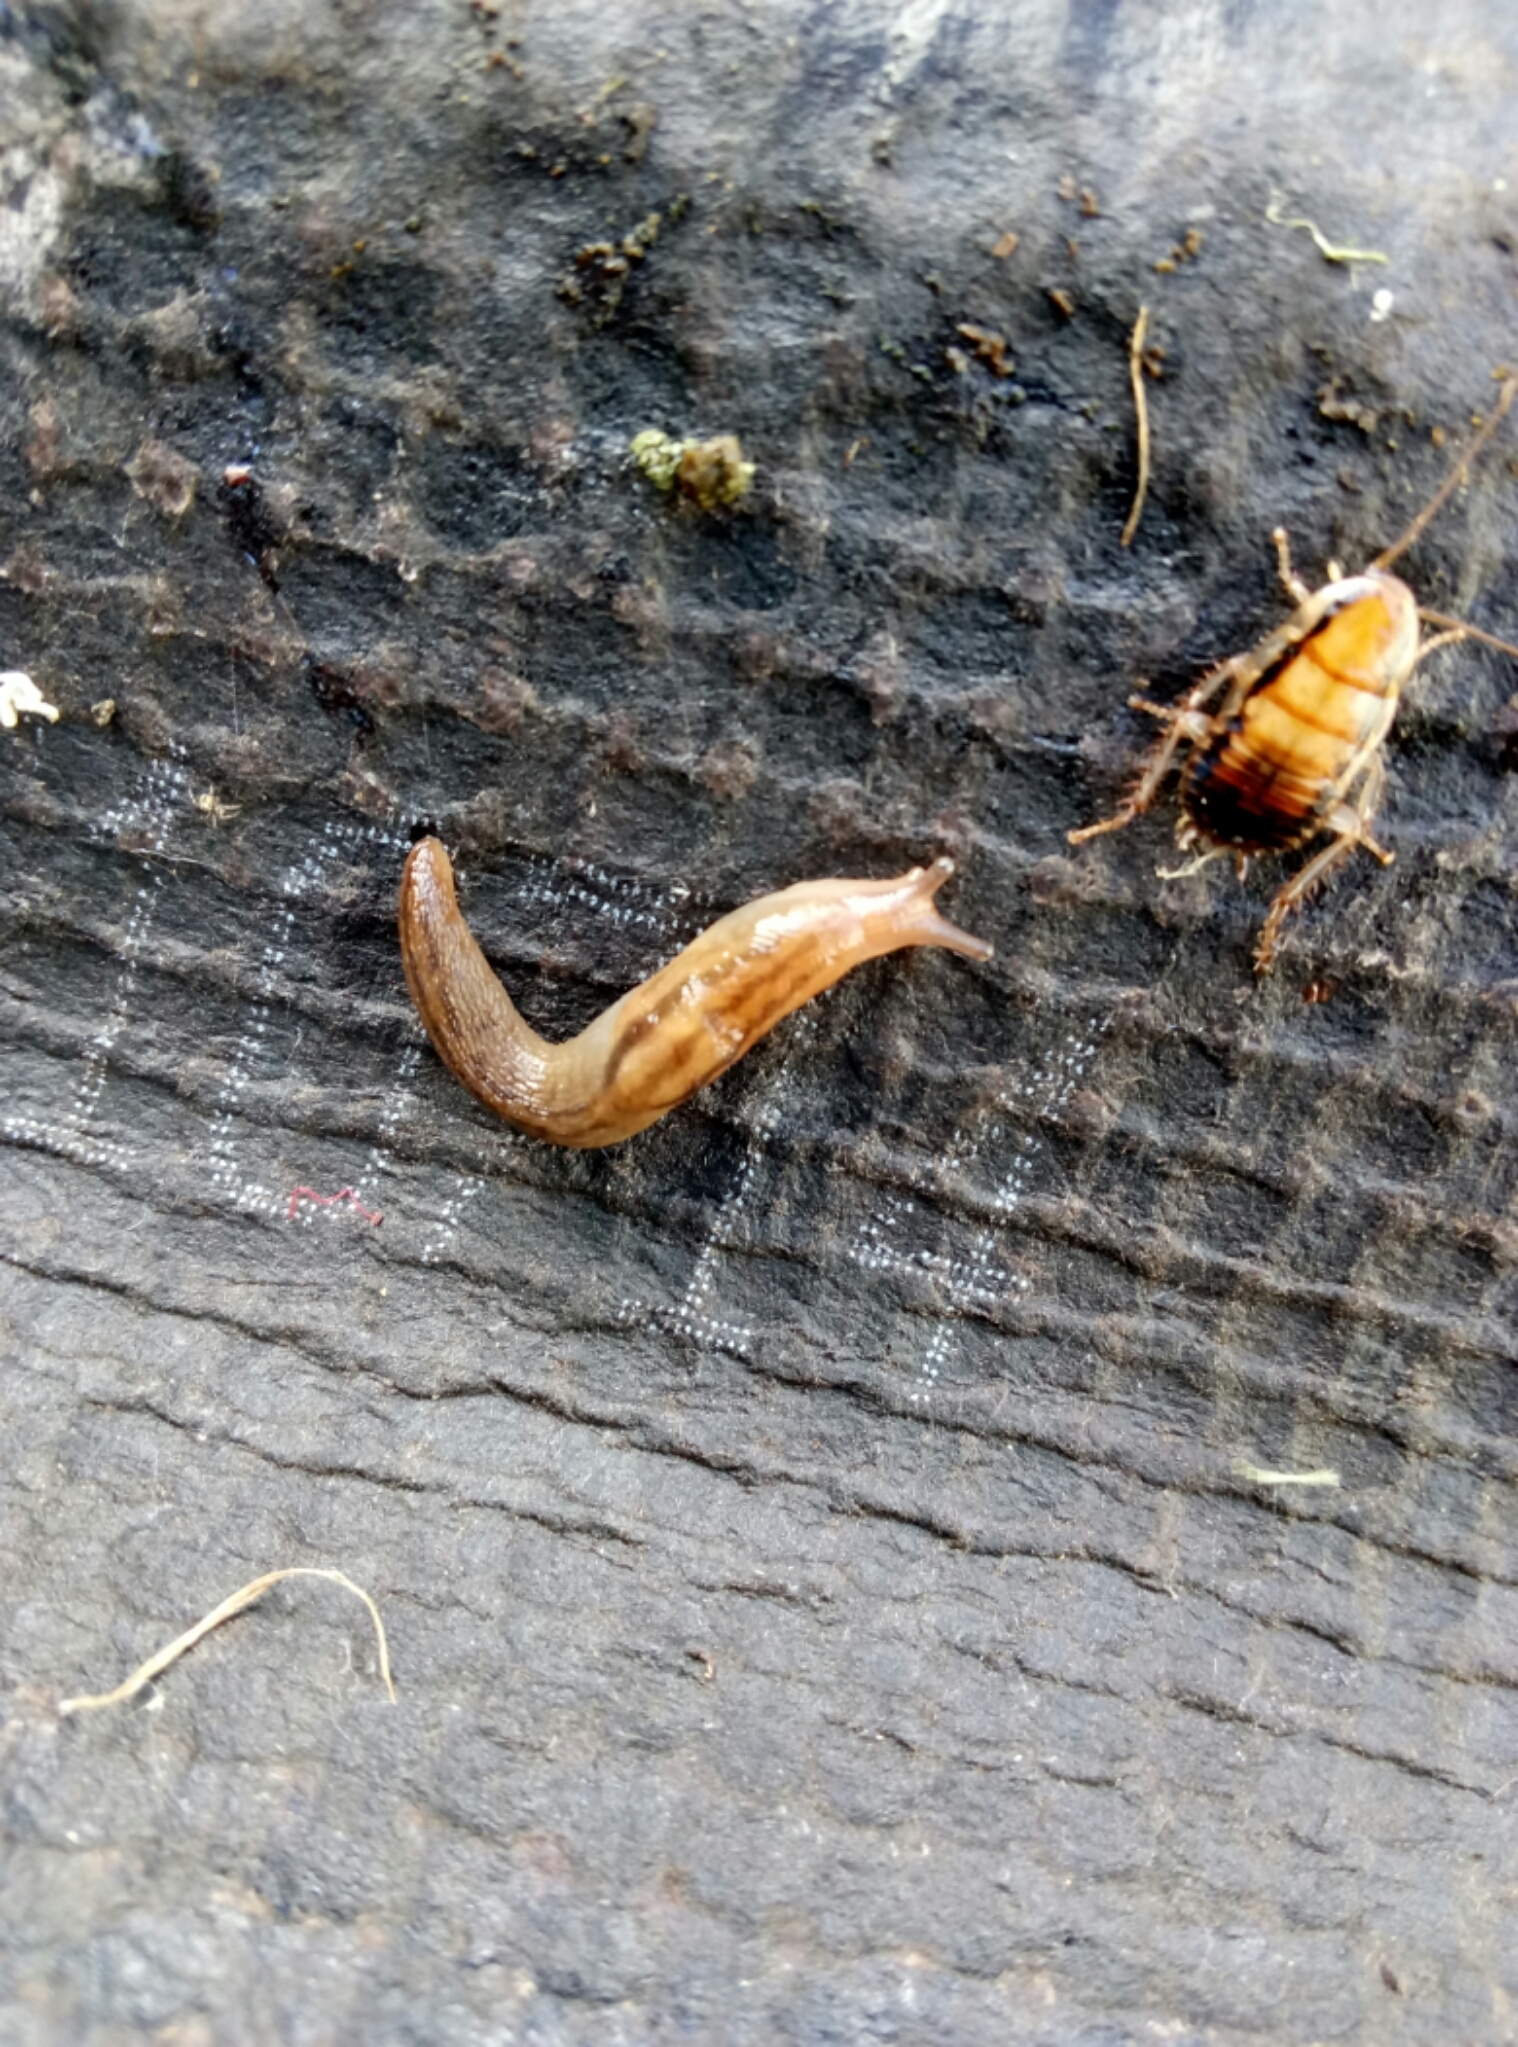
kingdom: Animalia
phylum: Mollusca
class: Gastropoda
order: Stylommatophora
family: Limacidae
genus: Ambigolimax
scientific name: Ambigolimax
